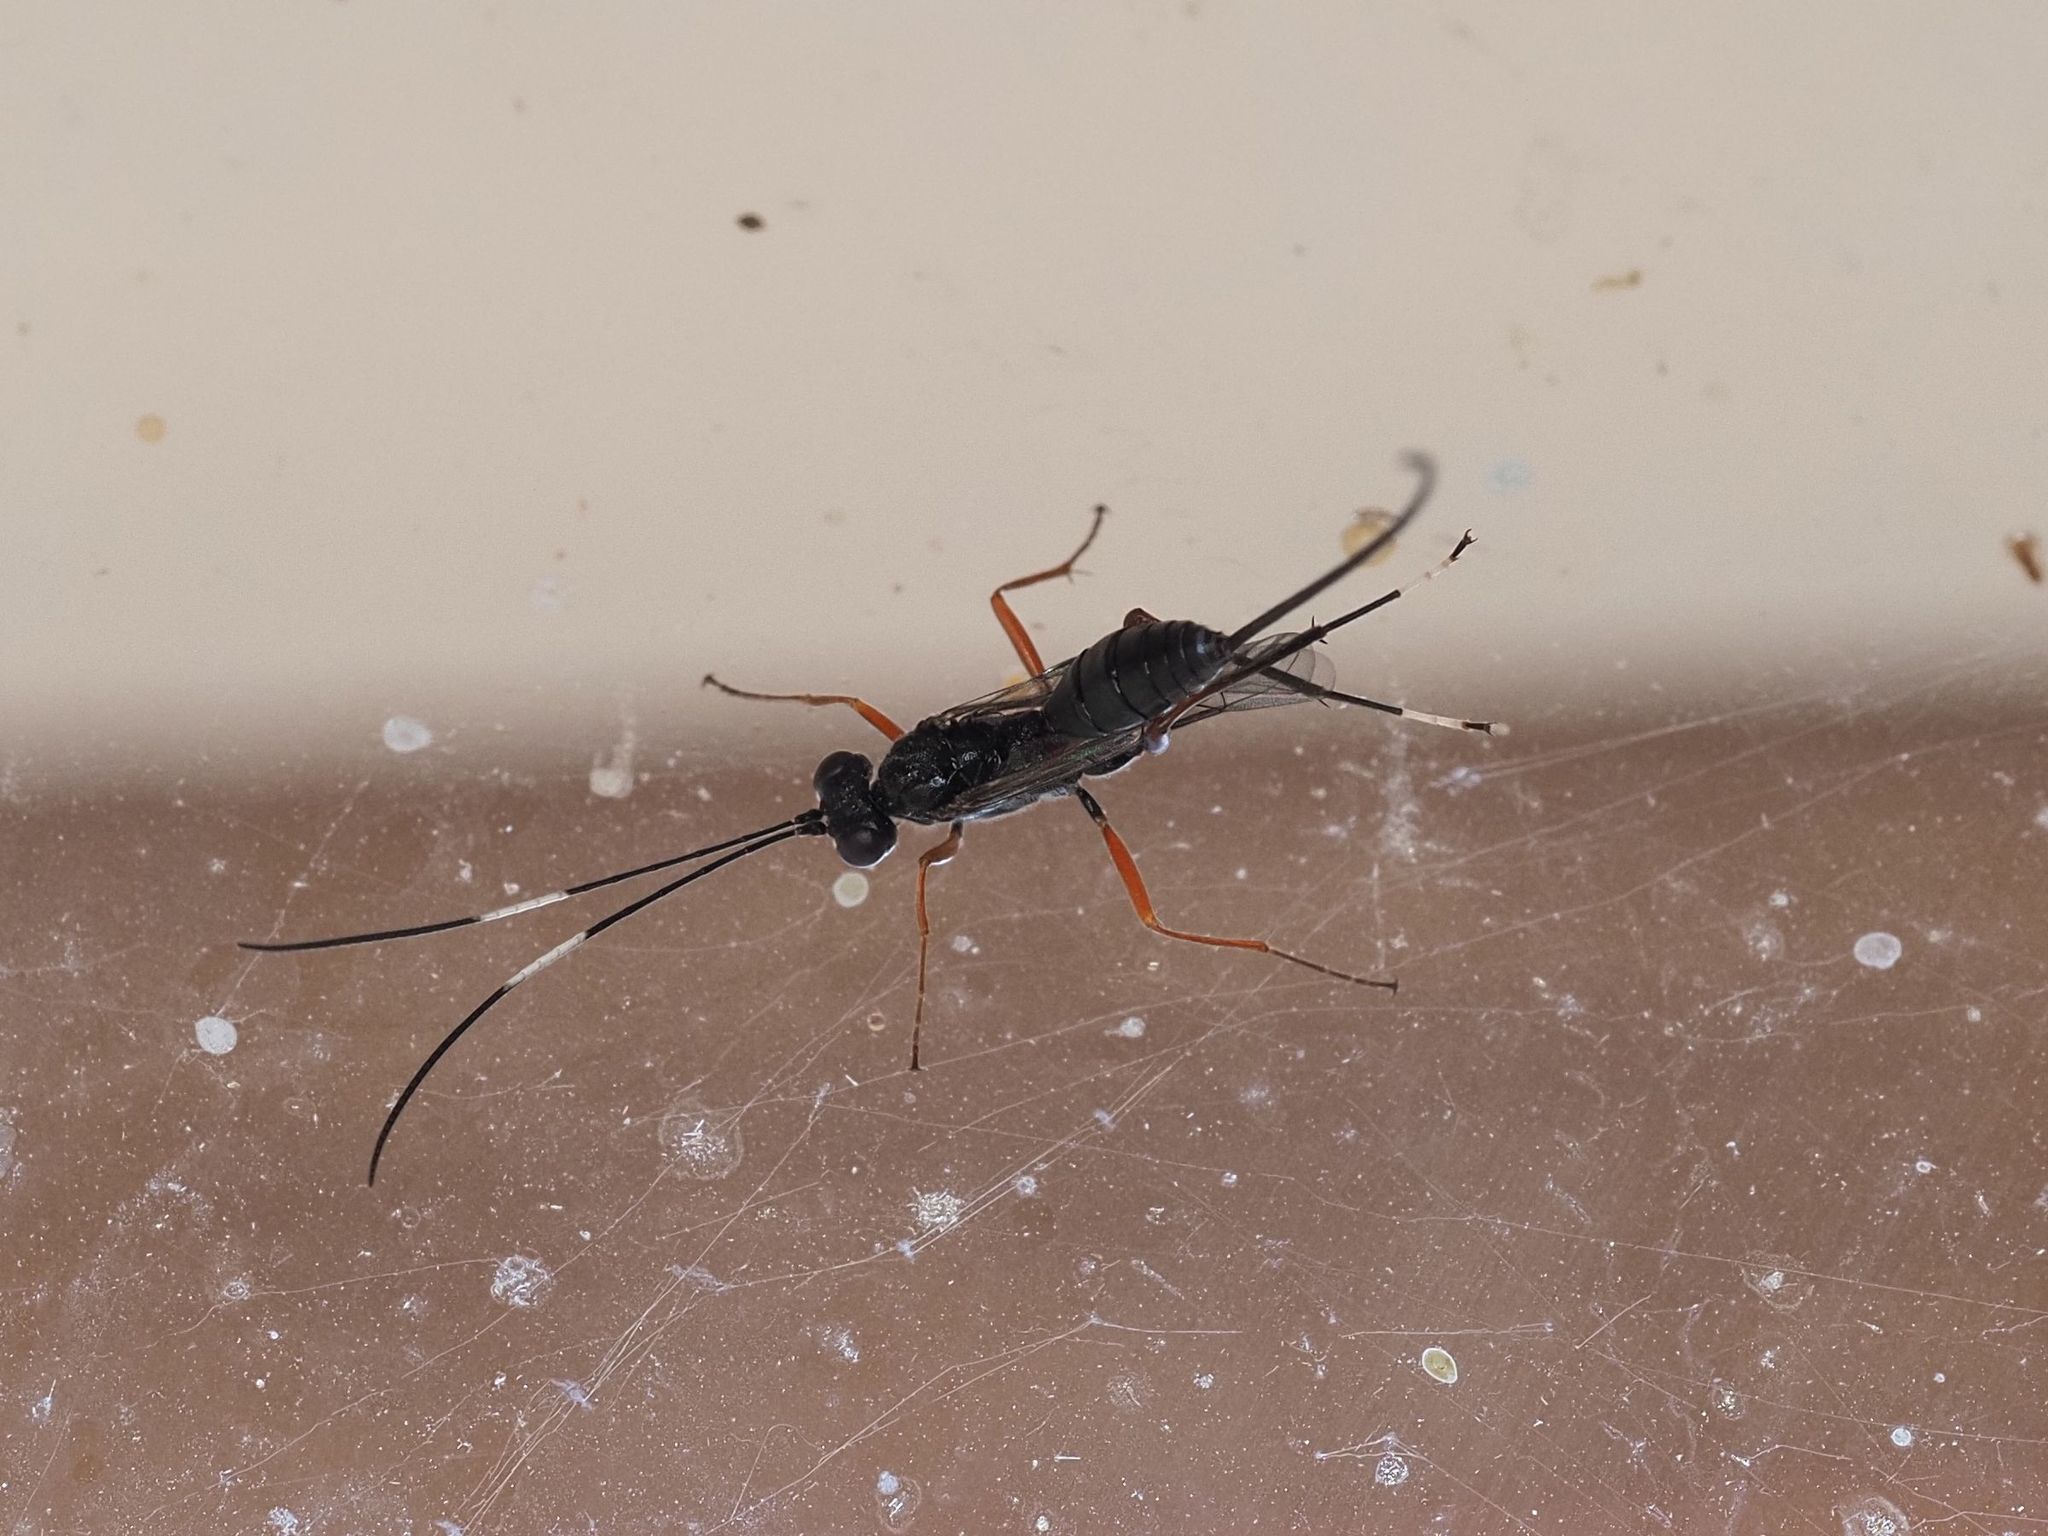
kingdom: Animalia
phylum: Arthropoda
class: Insecta
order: Hymenoptera
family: Ichneumonidae
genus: Stenarella
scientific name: Stenarella domator
